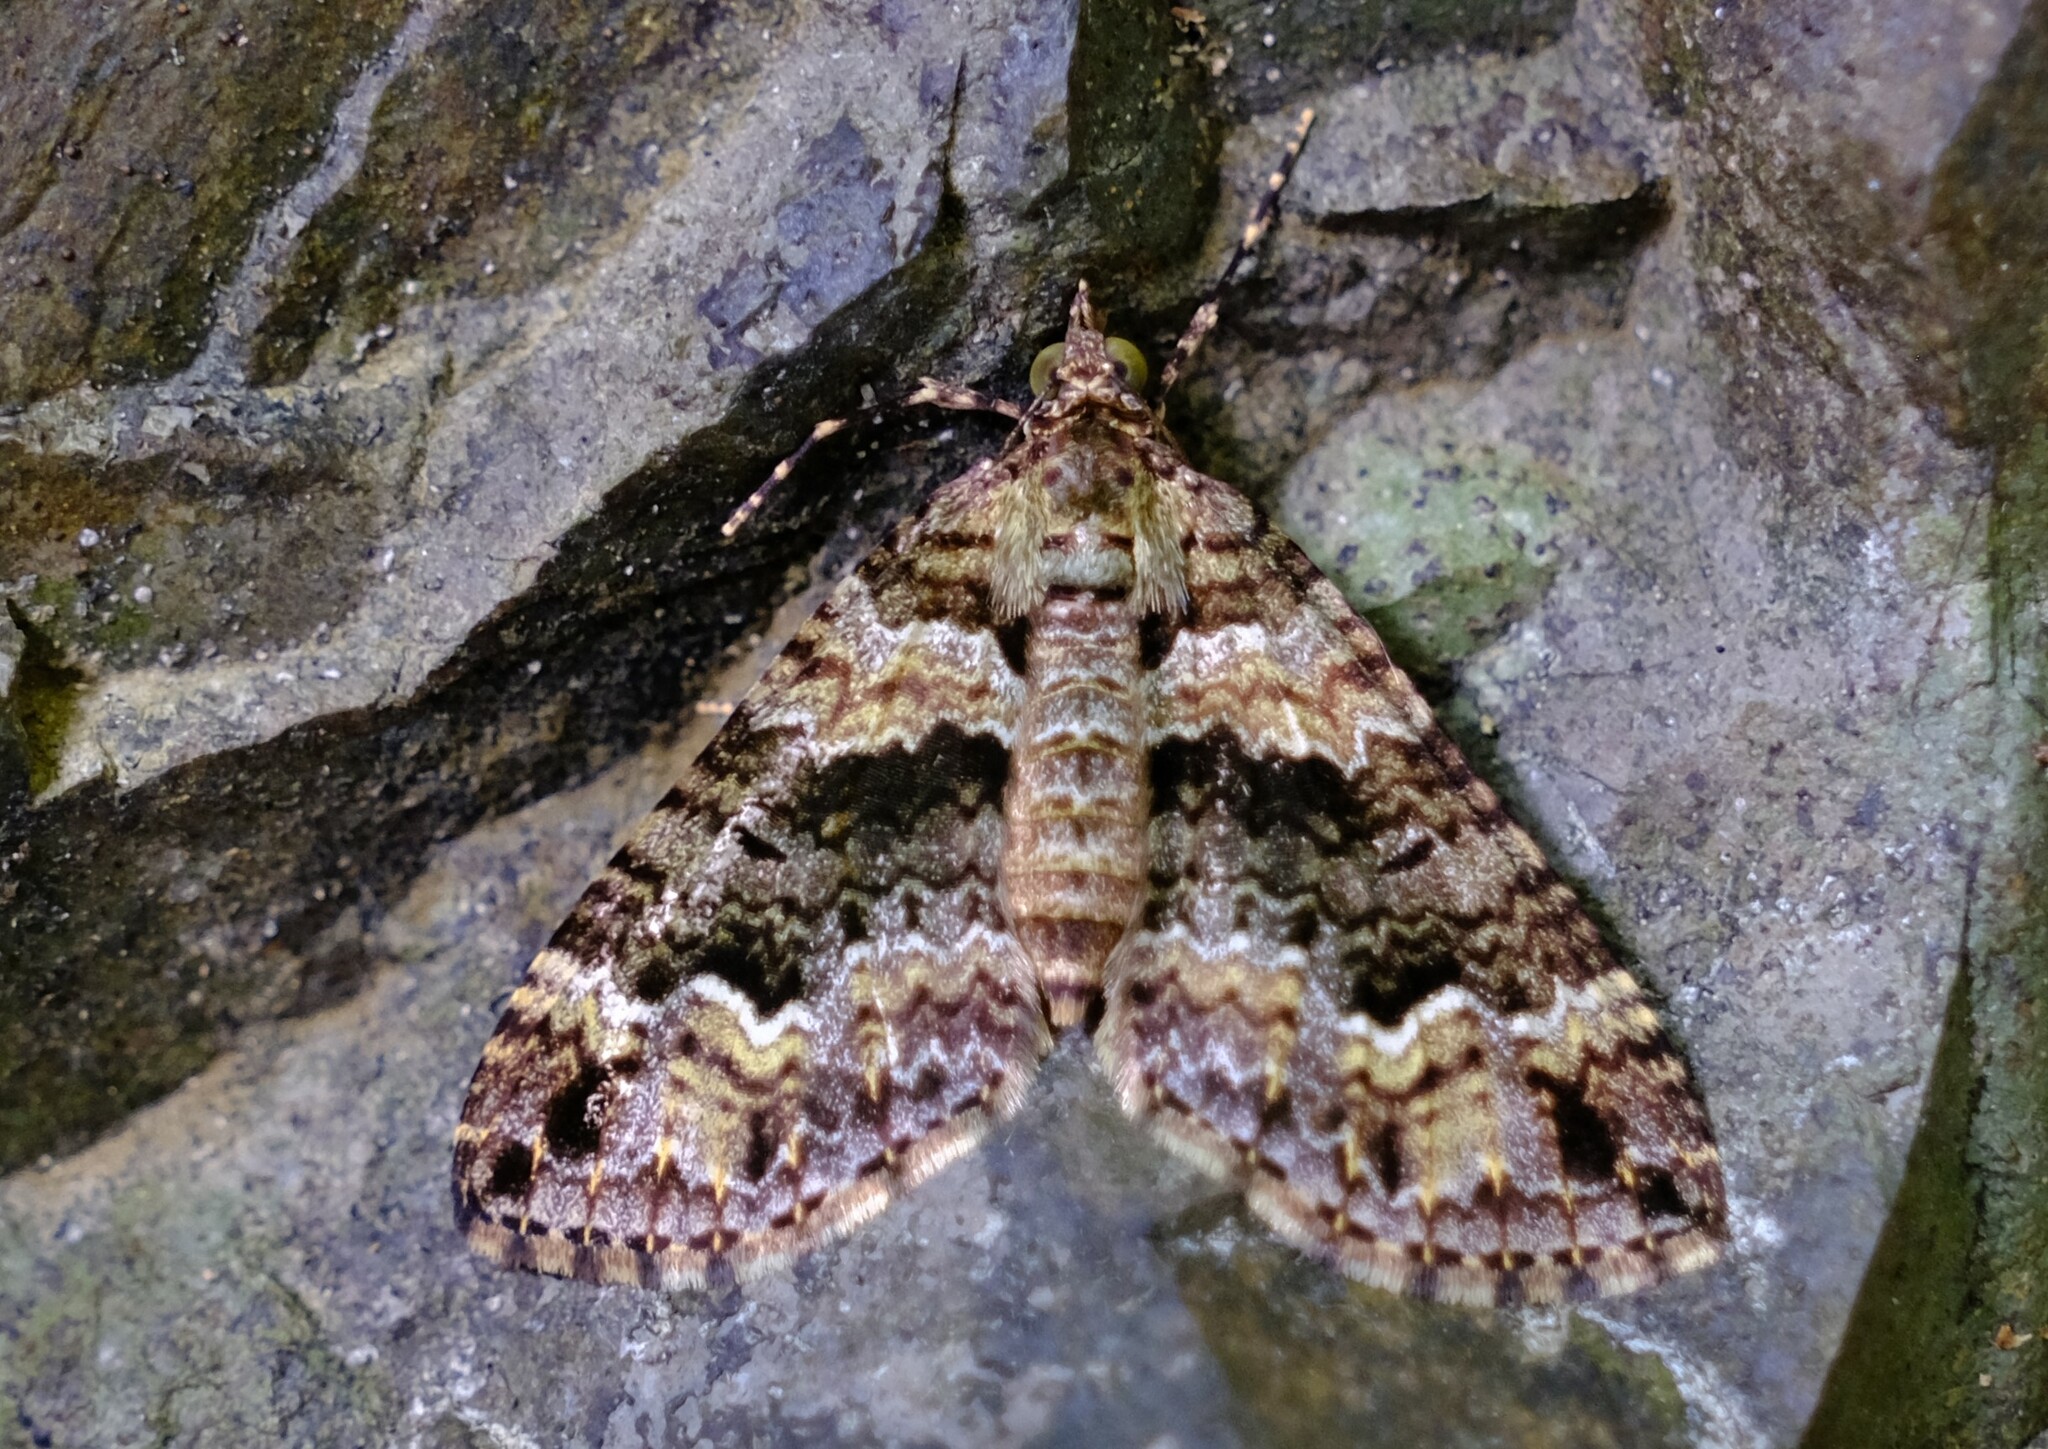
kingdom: Animalia
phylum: Arthropoda
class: Insecta
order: Lepidoptera
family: Geometridae
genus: Crasilogia
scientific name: Crasilogia gressitti
